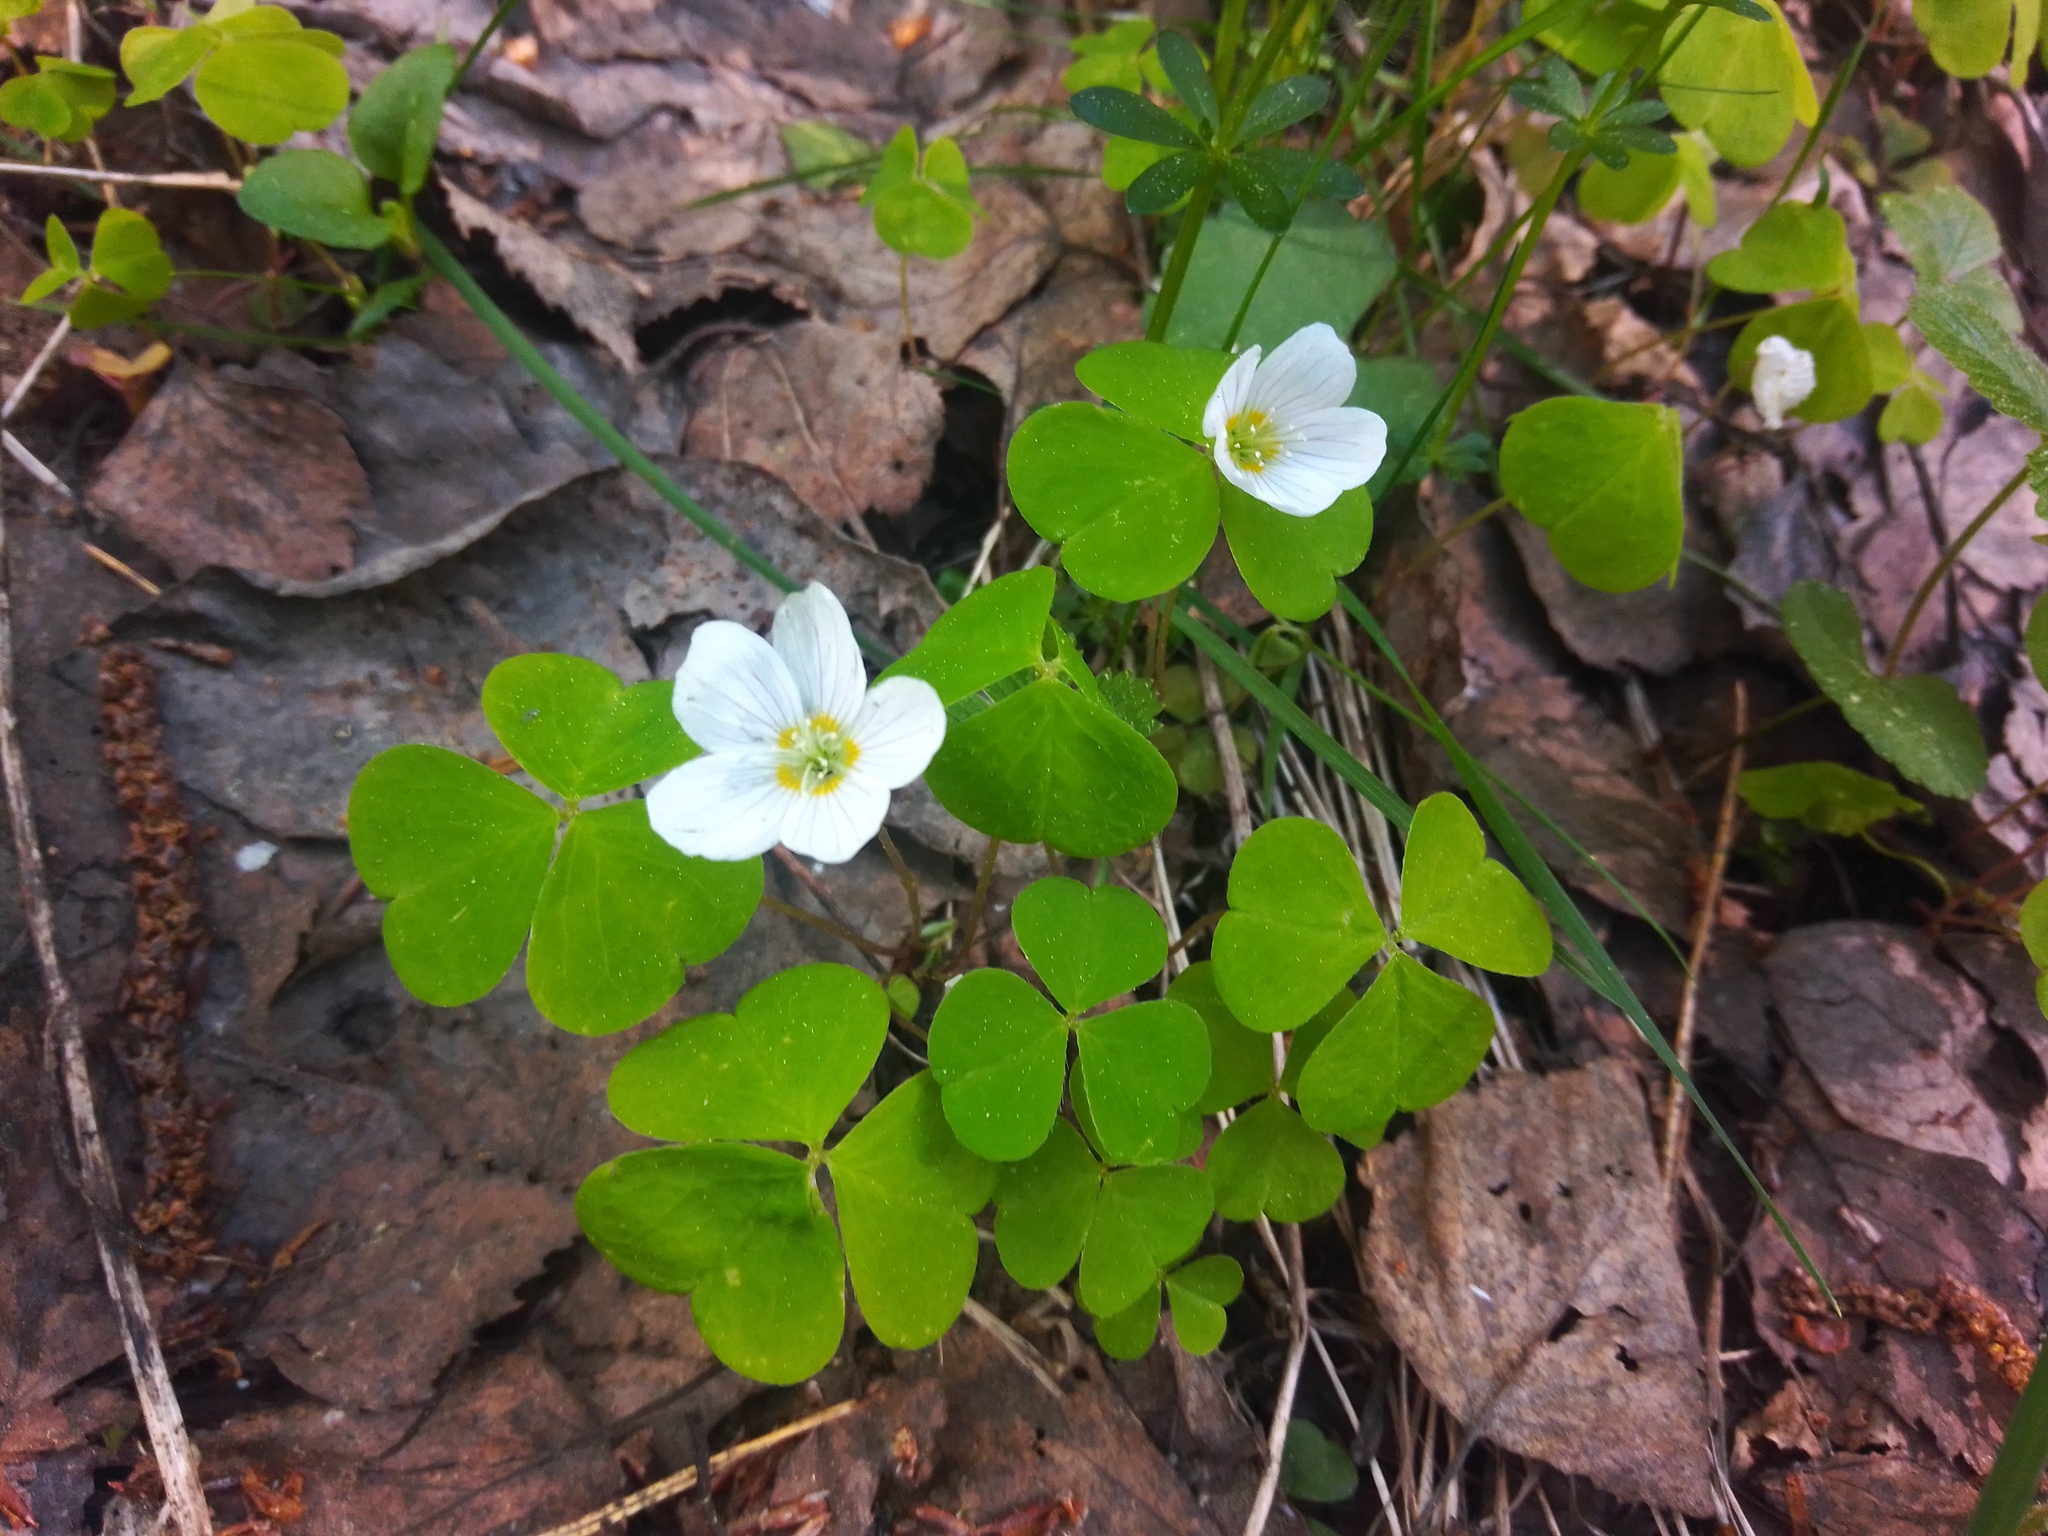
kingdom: Plantae
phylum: Tracheophyta
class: Magnoliopsida
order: Oxalidales
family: Oxalidaceae
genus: Oxalis
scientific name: Oxalis acetosella
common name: Wood-sorrel
